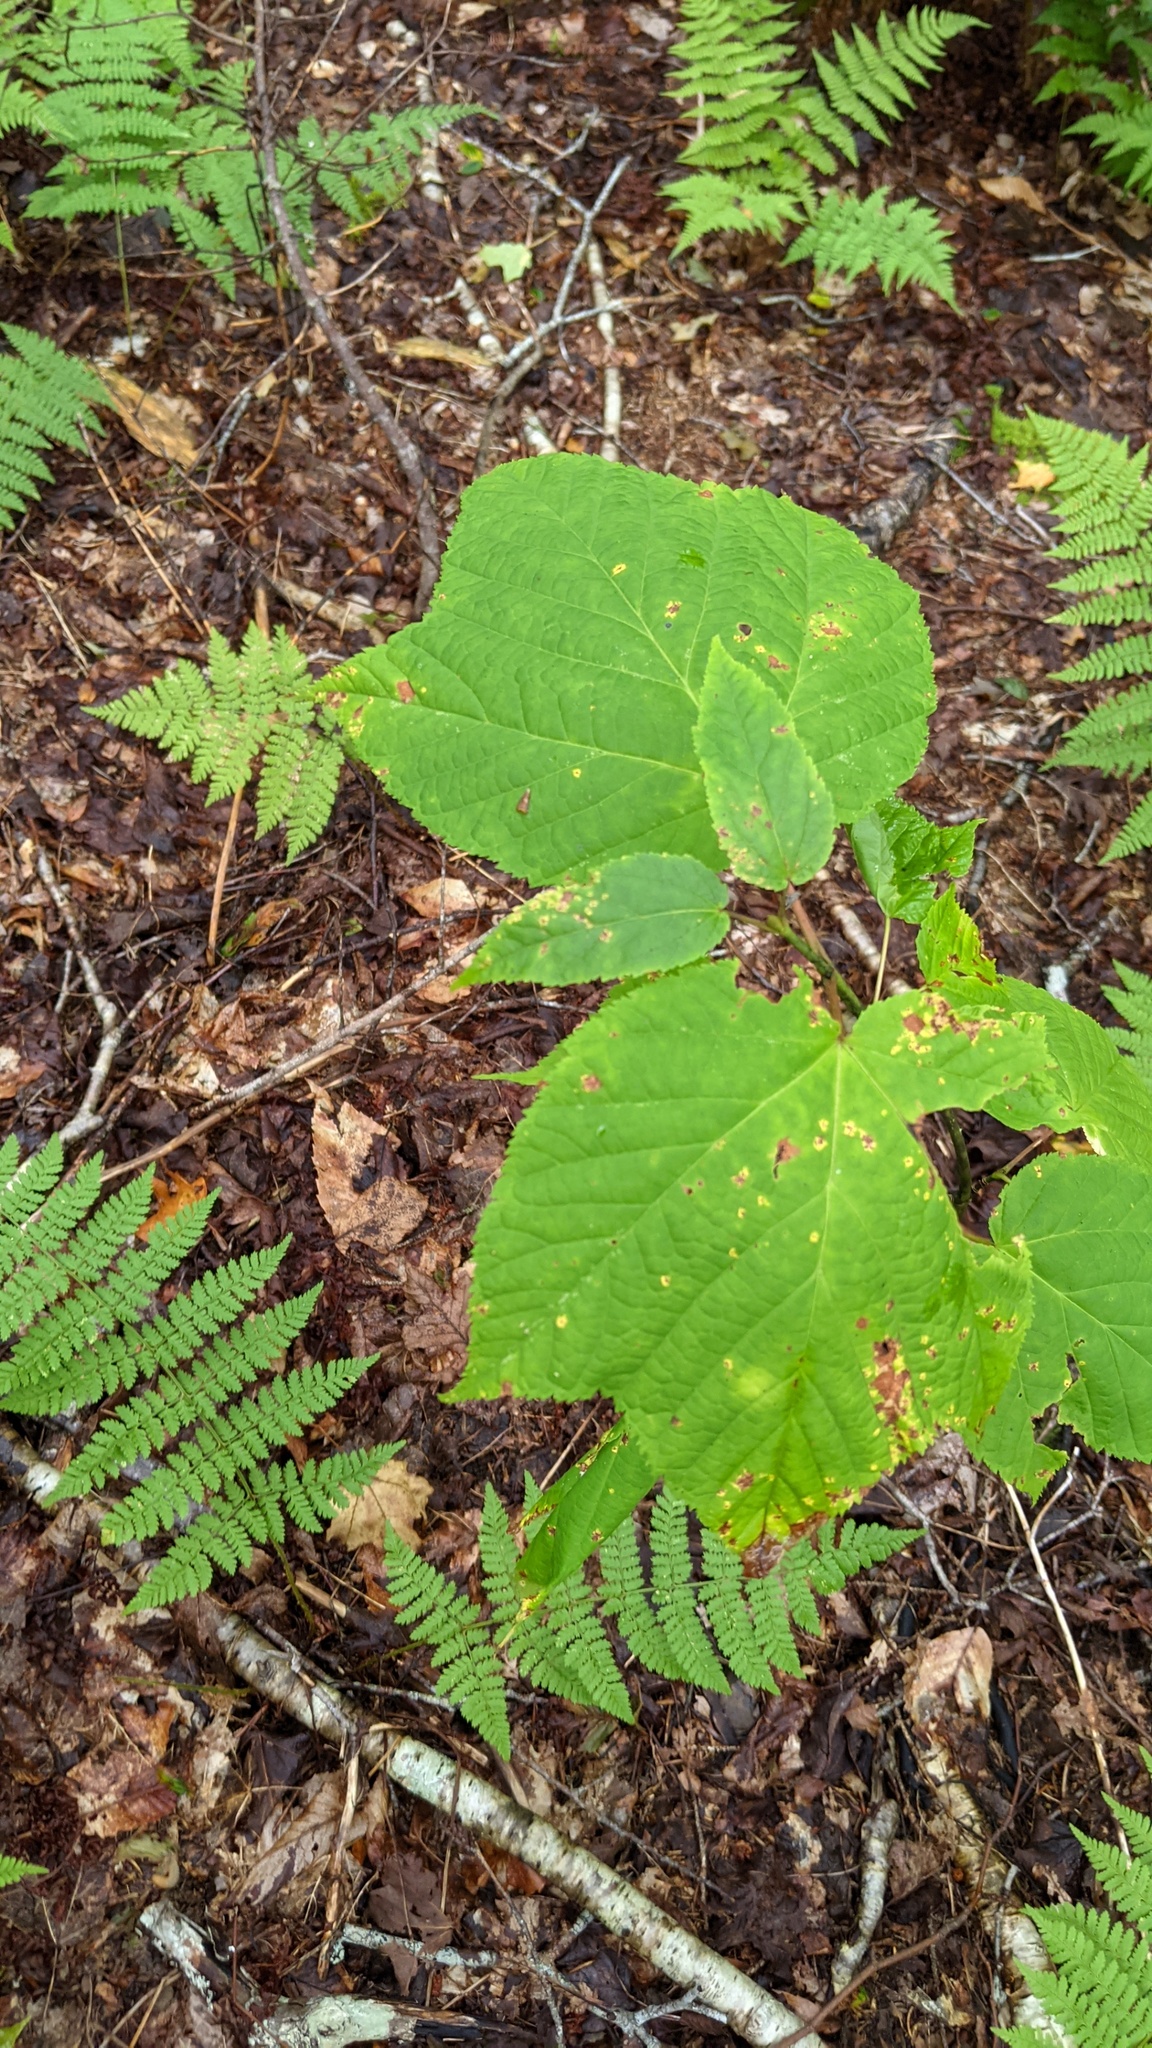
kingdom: Plantae
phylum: Tracheophyta
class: Magnoliopsida
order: Sapindales
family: Sapindaceae
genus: Acer
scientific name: Acer pensylvanicum
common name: Moosewood
